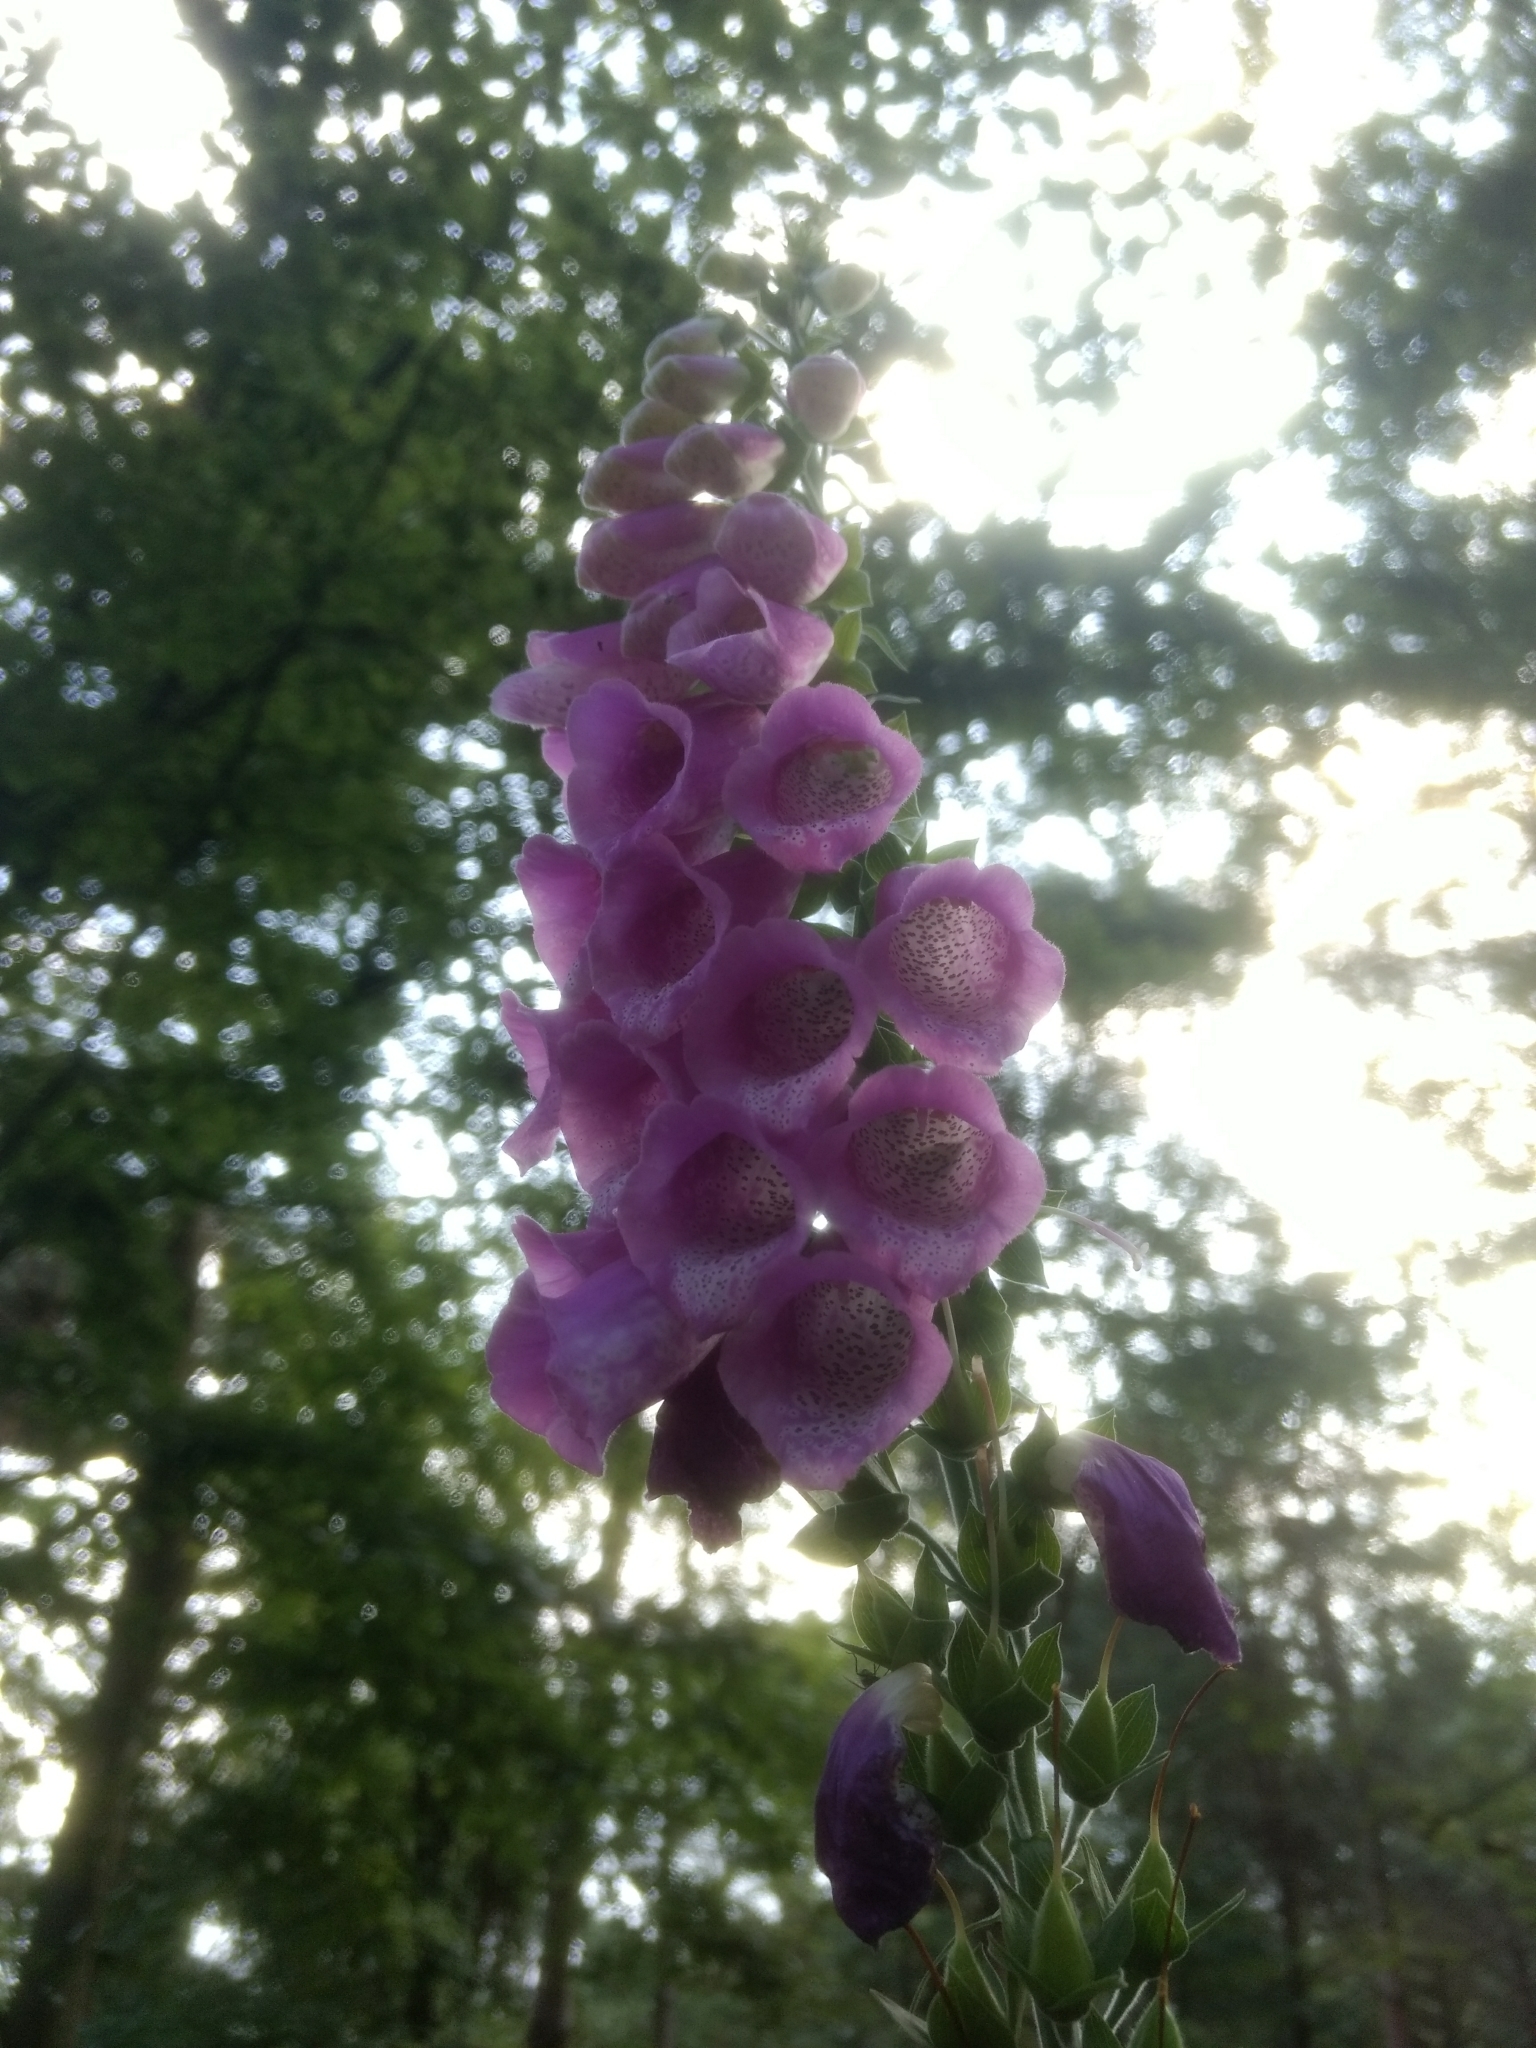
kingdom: Plantae
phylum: Tracheophyta
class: Magnoliopsida
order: Lamiales
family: Plantaginaceae
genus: Digitalis
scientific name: Digitalis purpurea
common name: Foxglove
